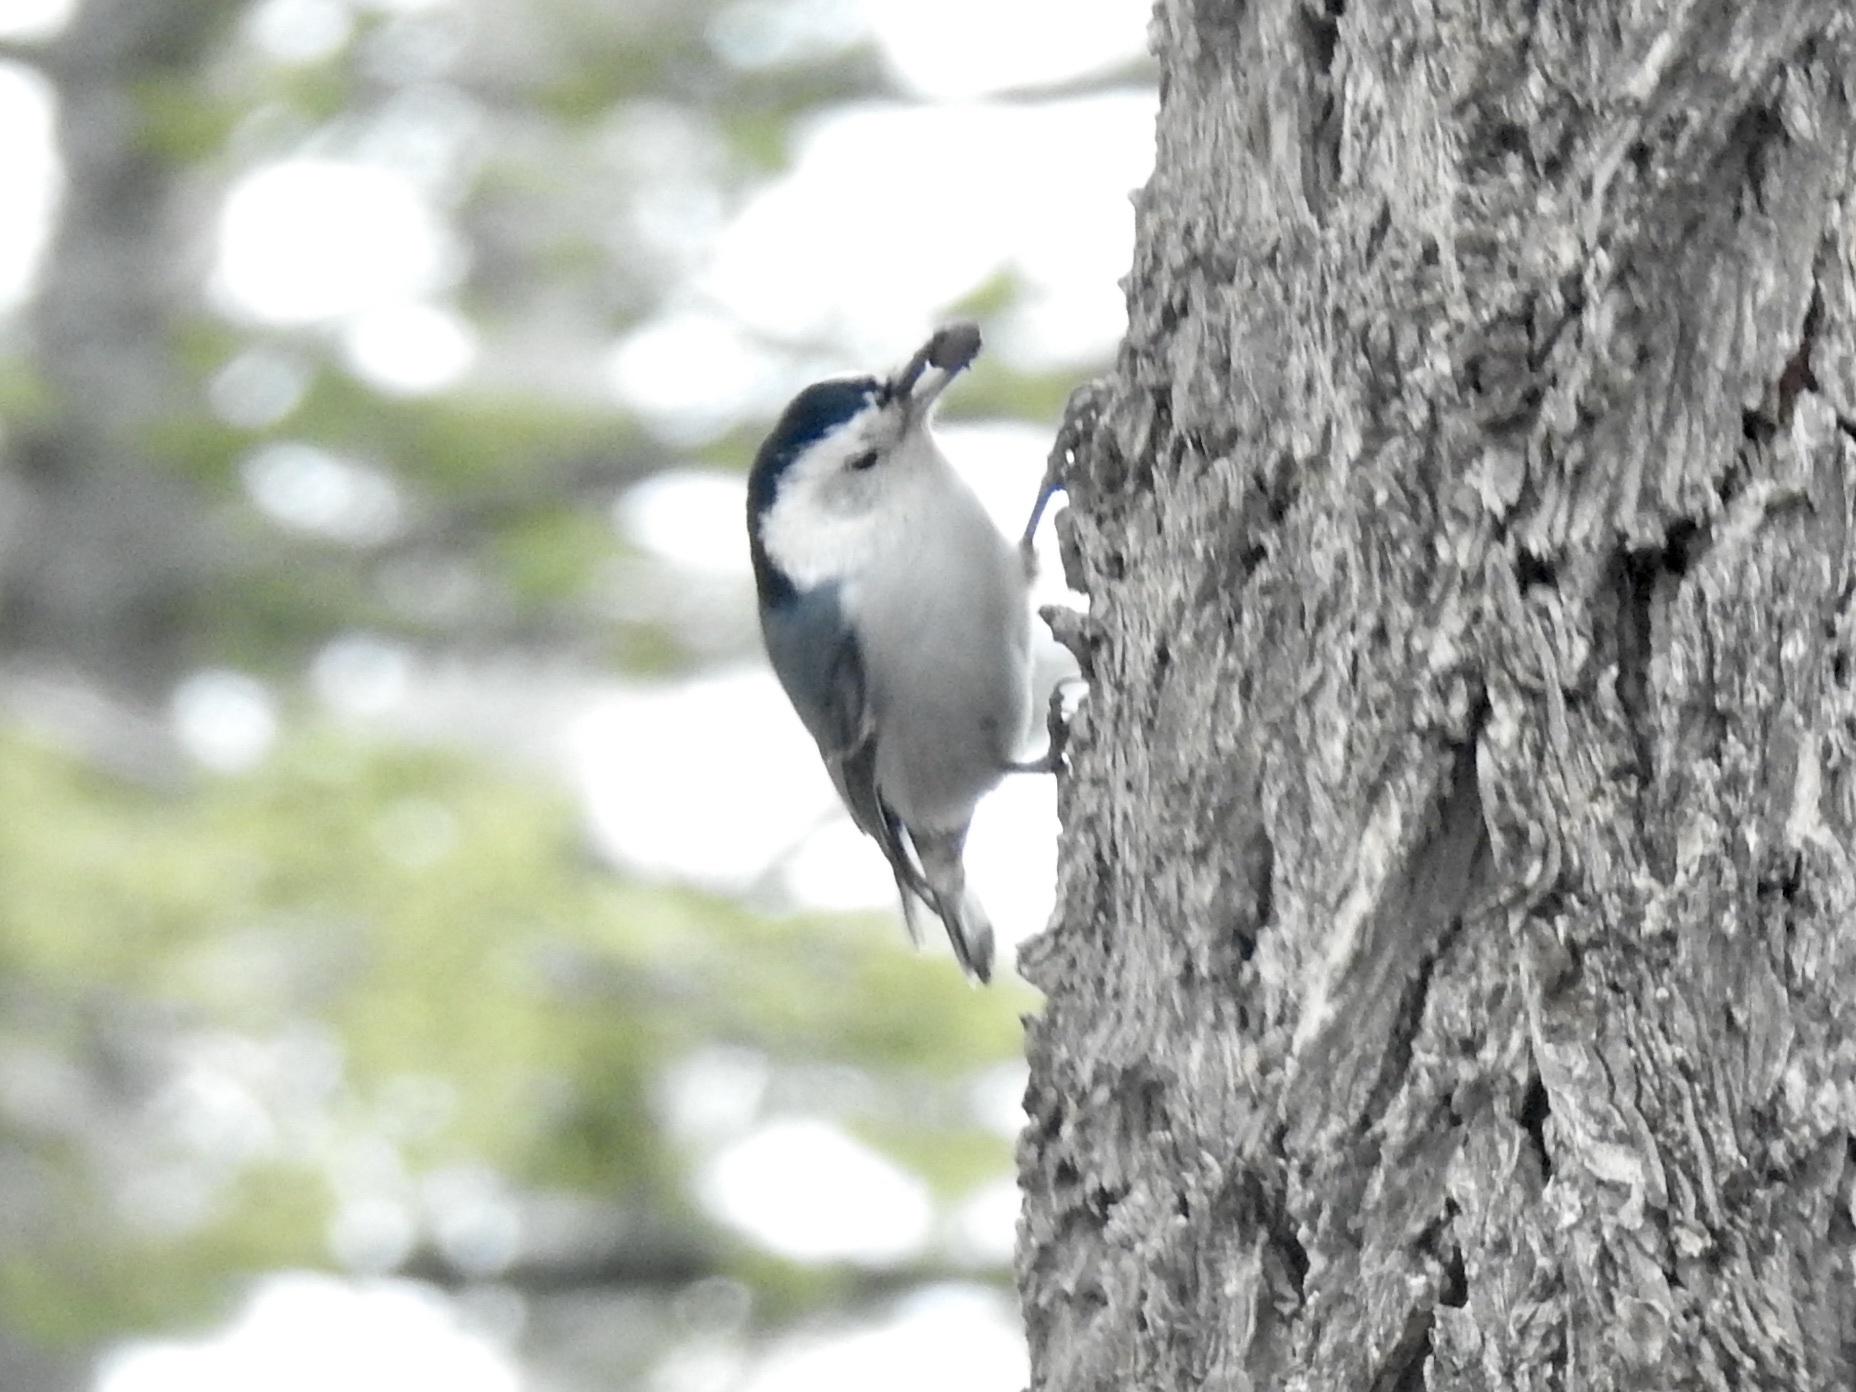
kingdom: Animalia
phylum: Chordata
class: Aves
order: Passeriformes
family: Sittidae
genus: Sitta
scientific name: Sitta carolinensis
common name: White-breasted nuthatch
